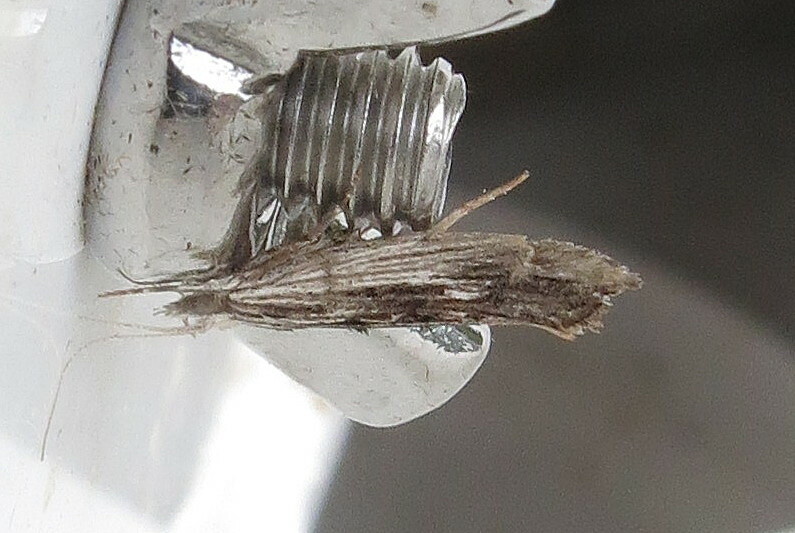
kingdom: Animalia
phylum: Arthropoda
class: Insecta
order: Lepidoptera
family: Ypsolophidae
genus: Ypsolopha
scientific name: Ypsolopha scabrella
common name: Wainscot smudge
